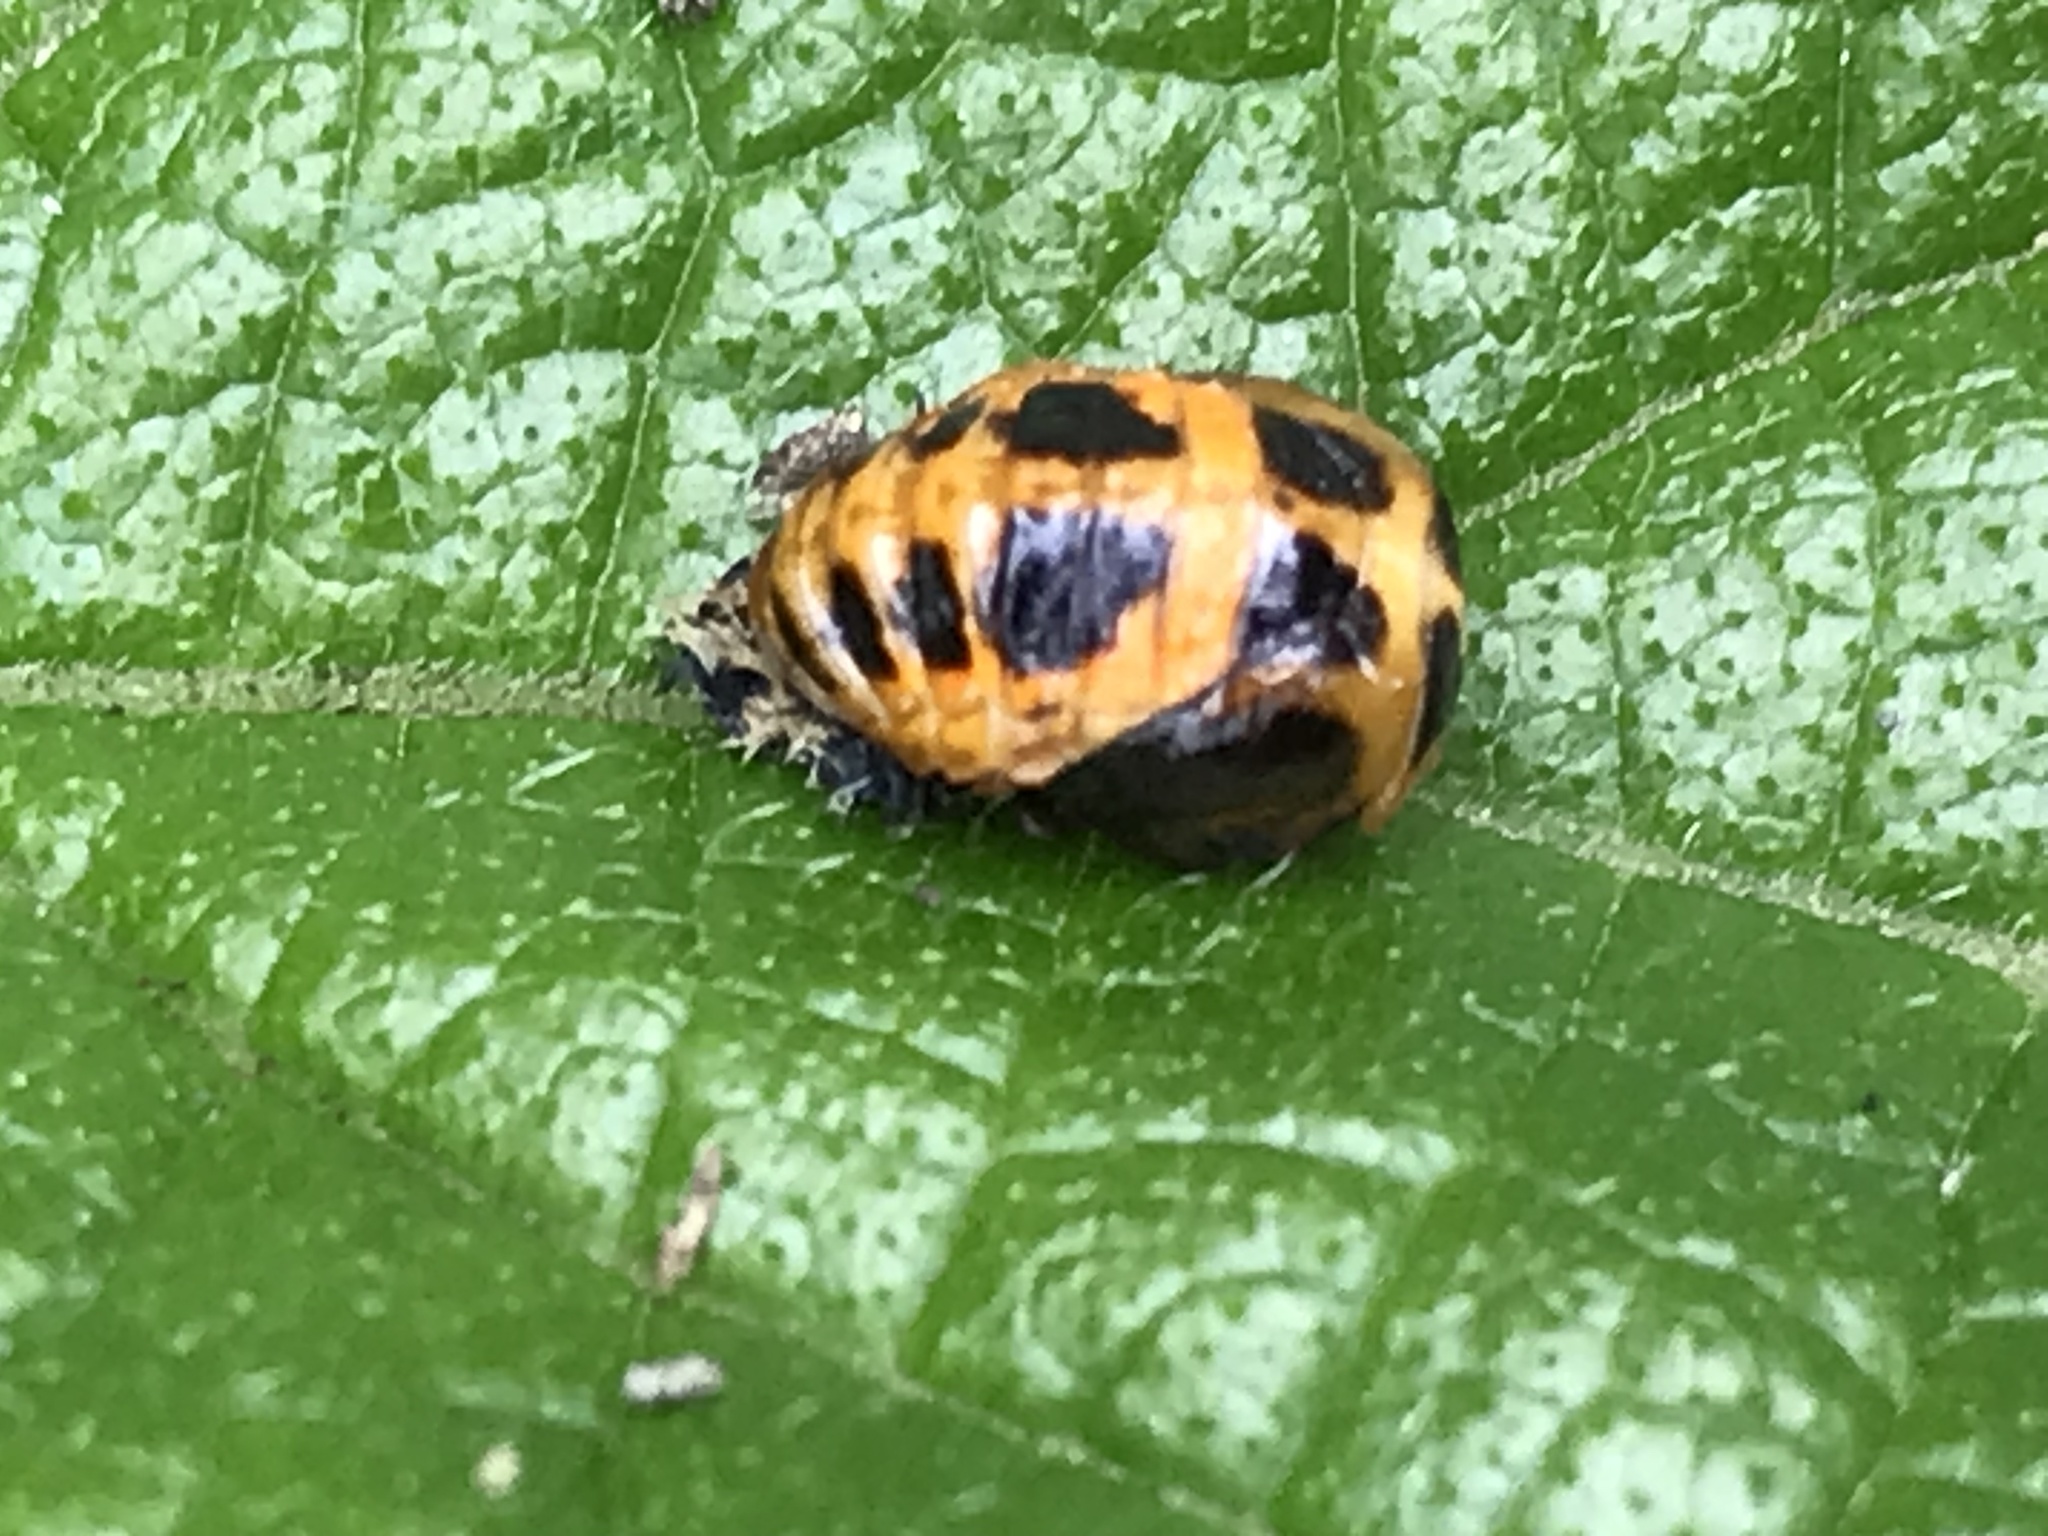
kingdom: Animalia
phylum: Arthropoda
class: Insecta
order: Coleoptera
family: Coccinellidae
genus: Harmonia
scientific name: Harmonia axyridis
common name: Harlequin ladybird
